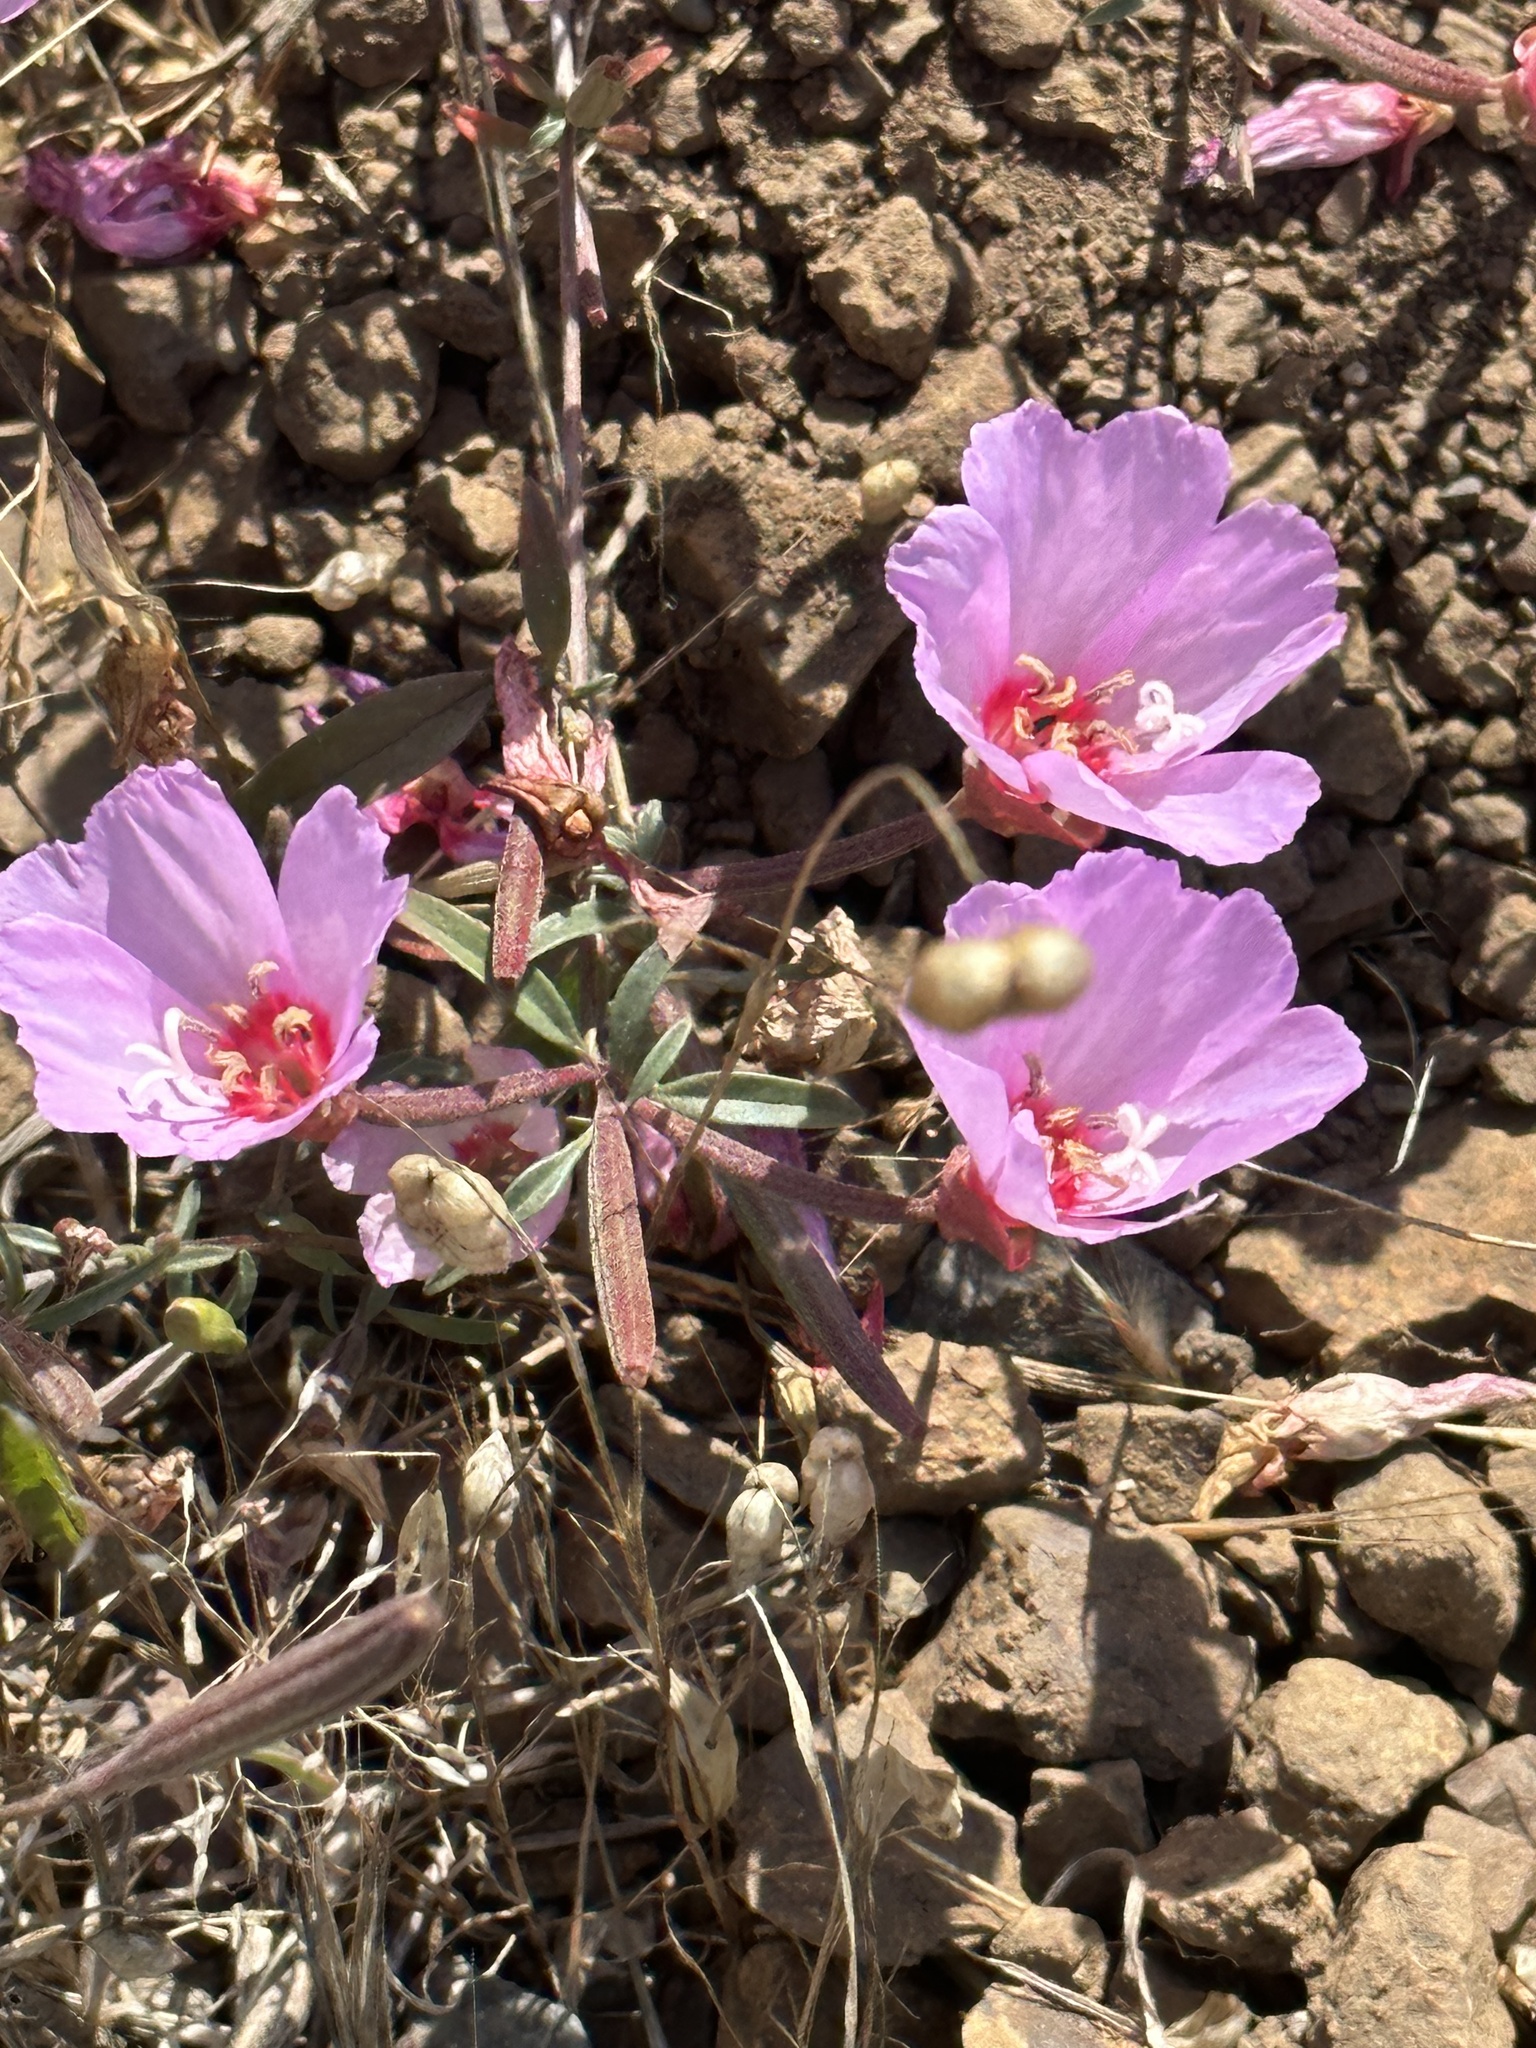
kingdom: Plantae
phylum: Tracheophyta
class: Magnoliopsida
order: Myrtales
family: Onagraceae
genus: Clarkia
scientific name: Clarkia rubicunda
